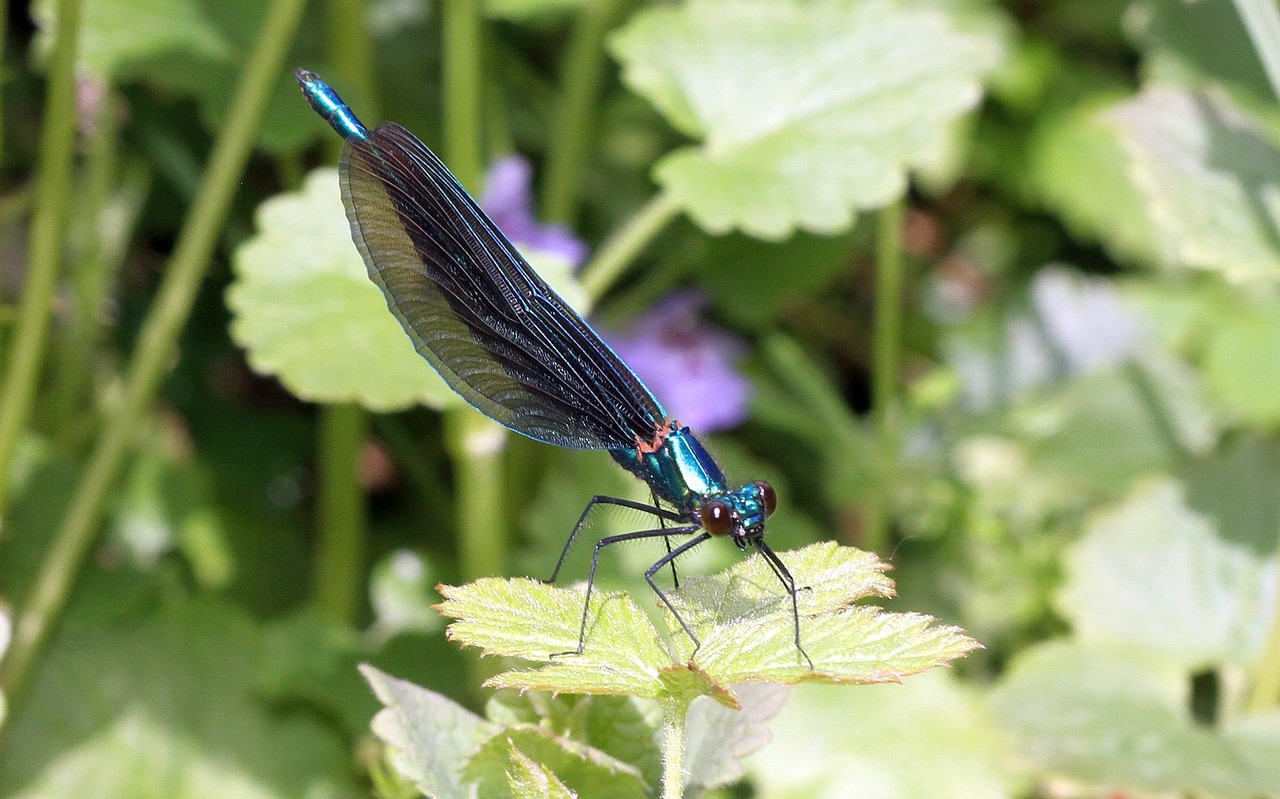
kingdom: Animalia
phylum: Arthropoda
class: Insecta
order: Odonata
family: Calopterygidae
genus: Calopteryx
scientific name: Calopteryx virgo
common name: Beautiful demoiselle
